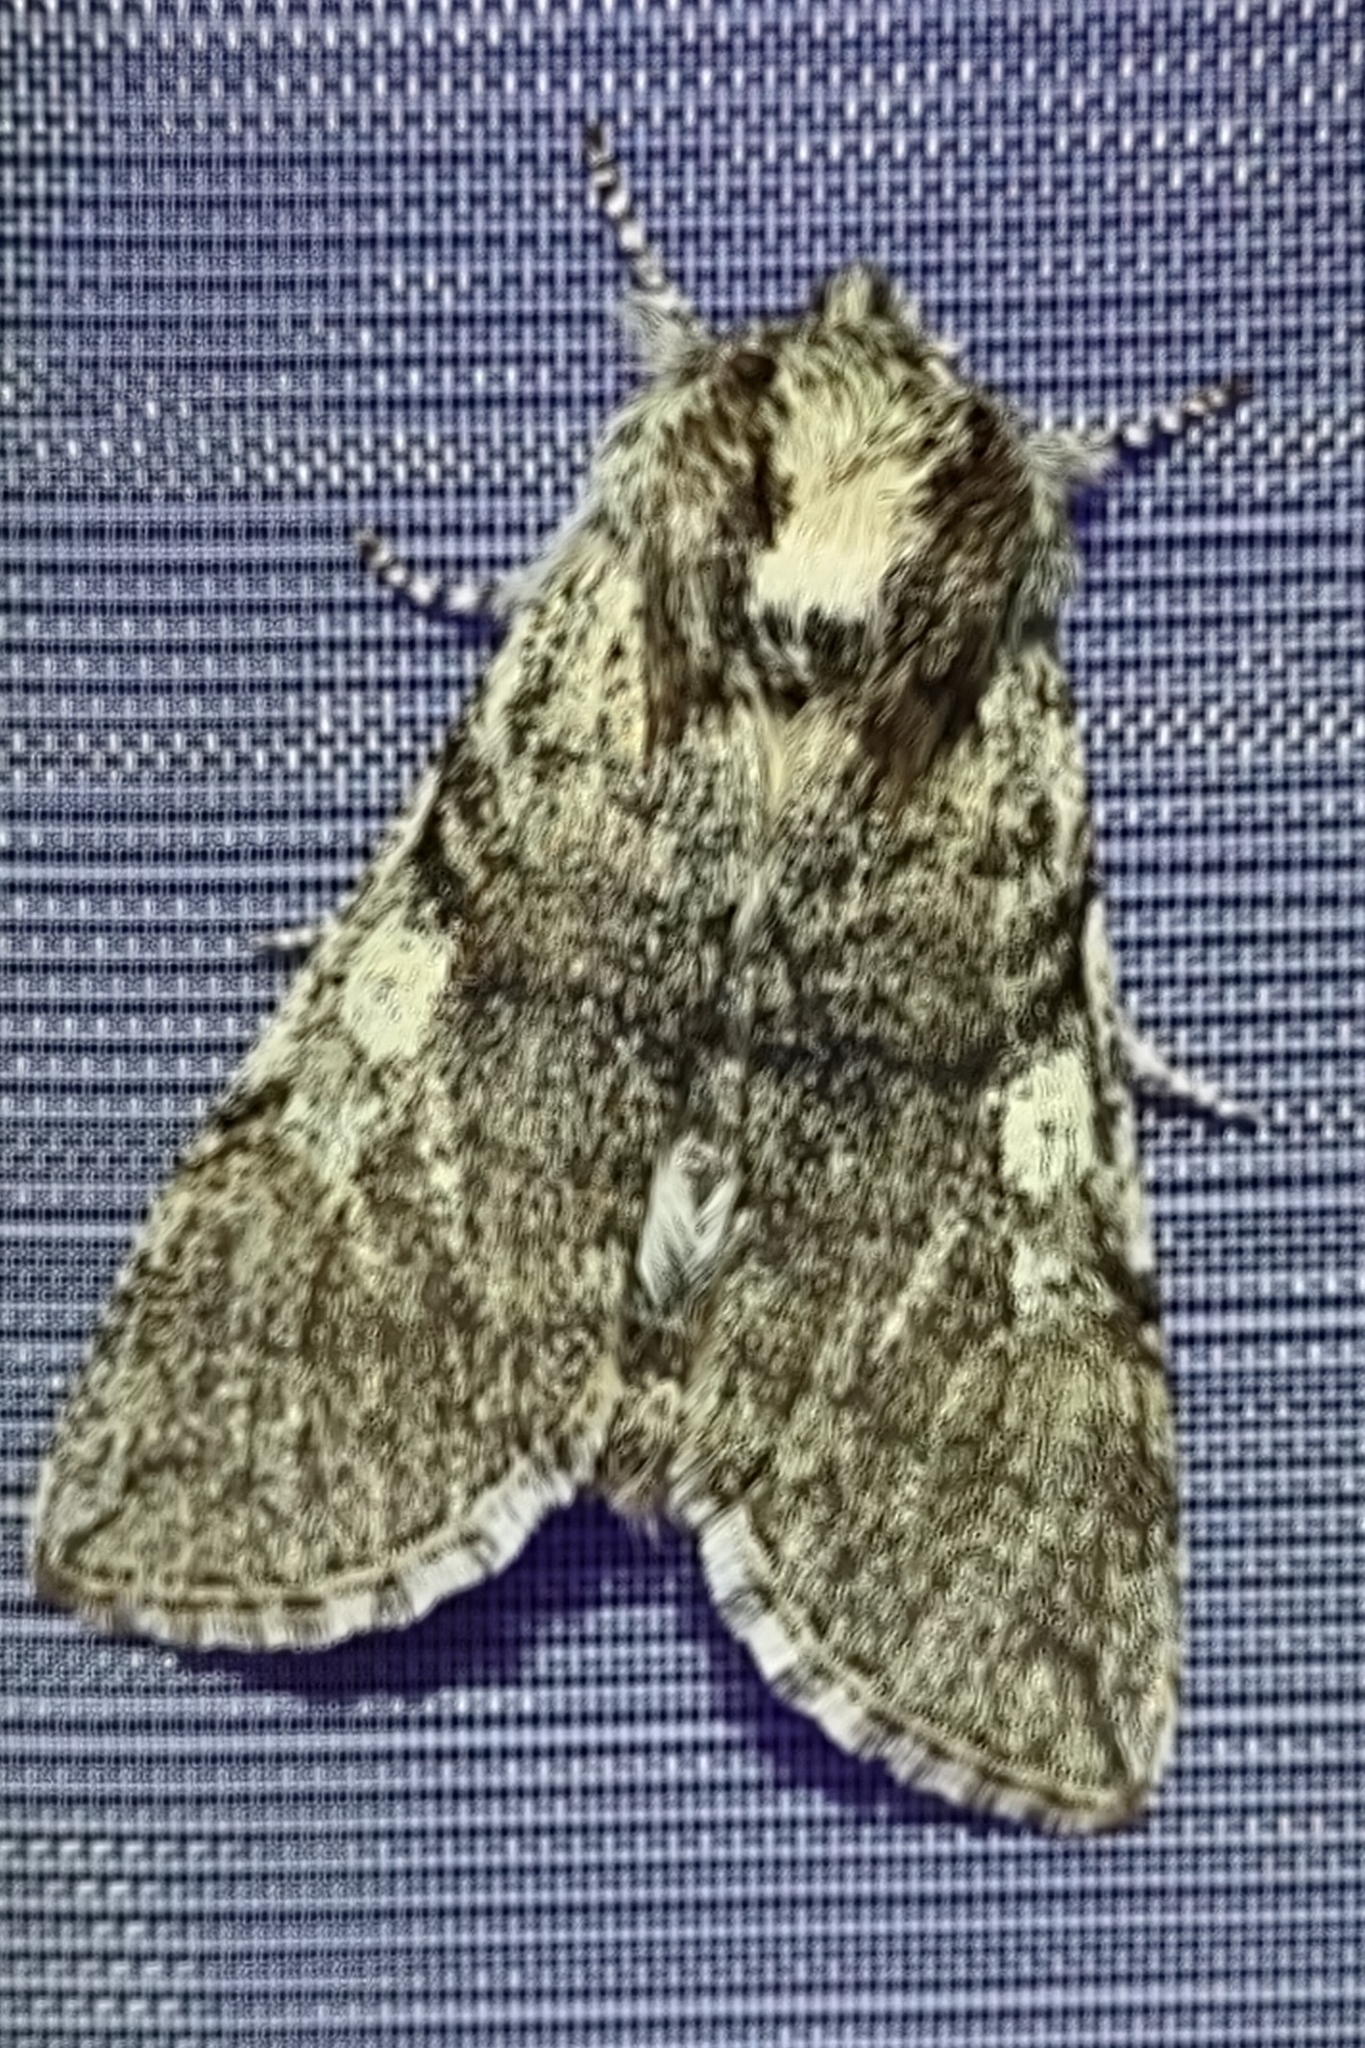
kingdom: Animalia
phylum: Arthropoda
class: Insecta
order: Lepidoptera
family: Drepanidae
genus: Achlya
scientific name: Achlya flavicornis
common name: Yellow horned
